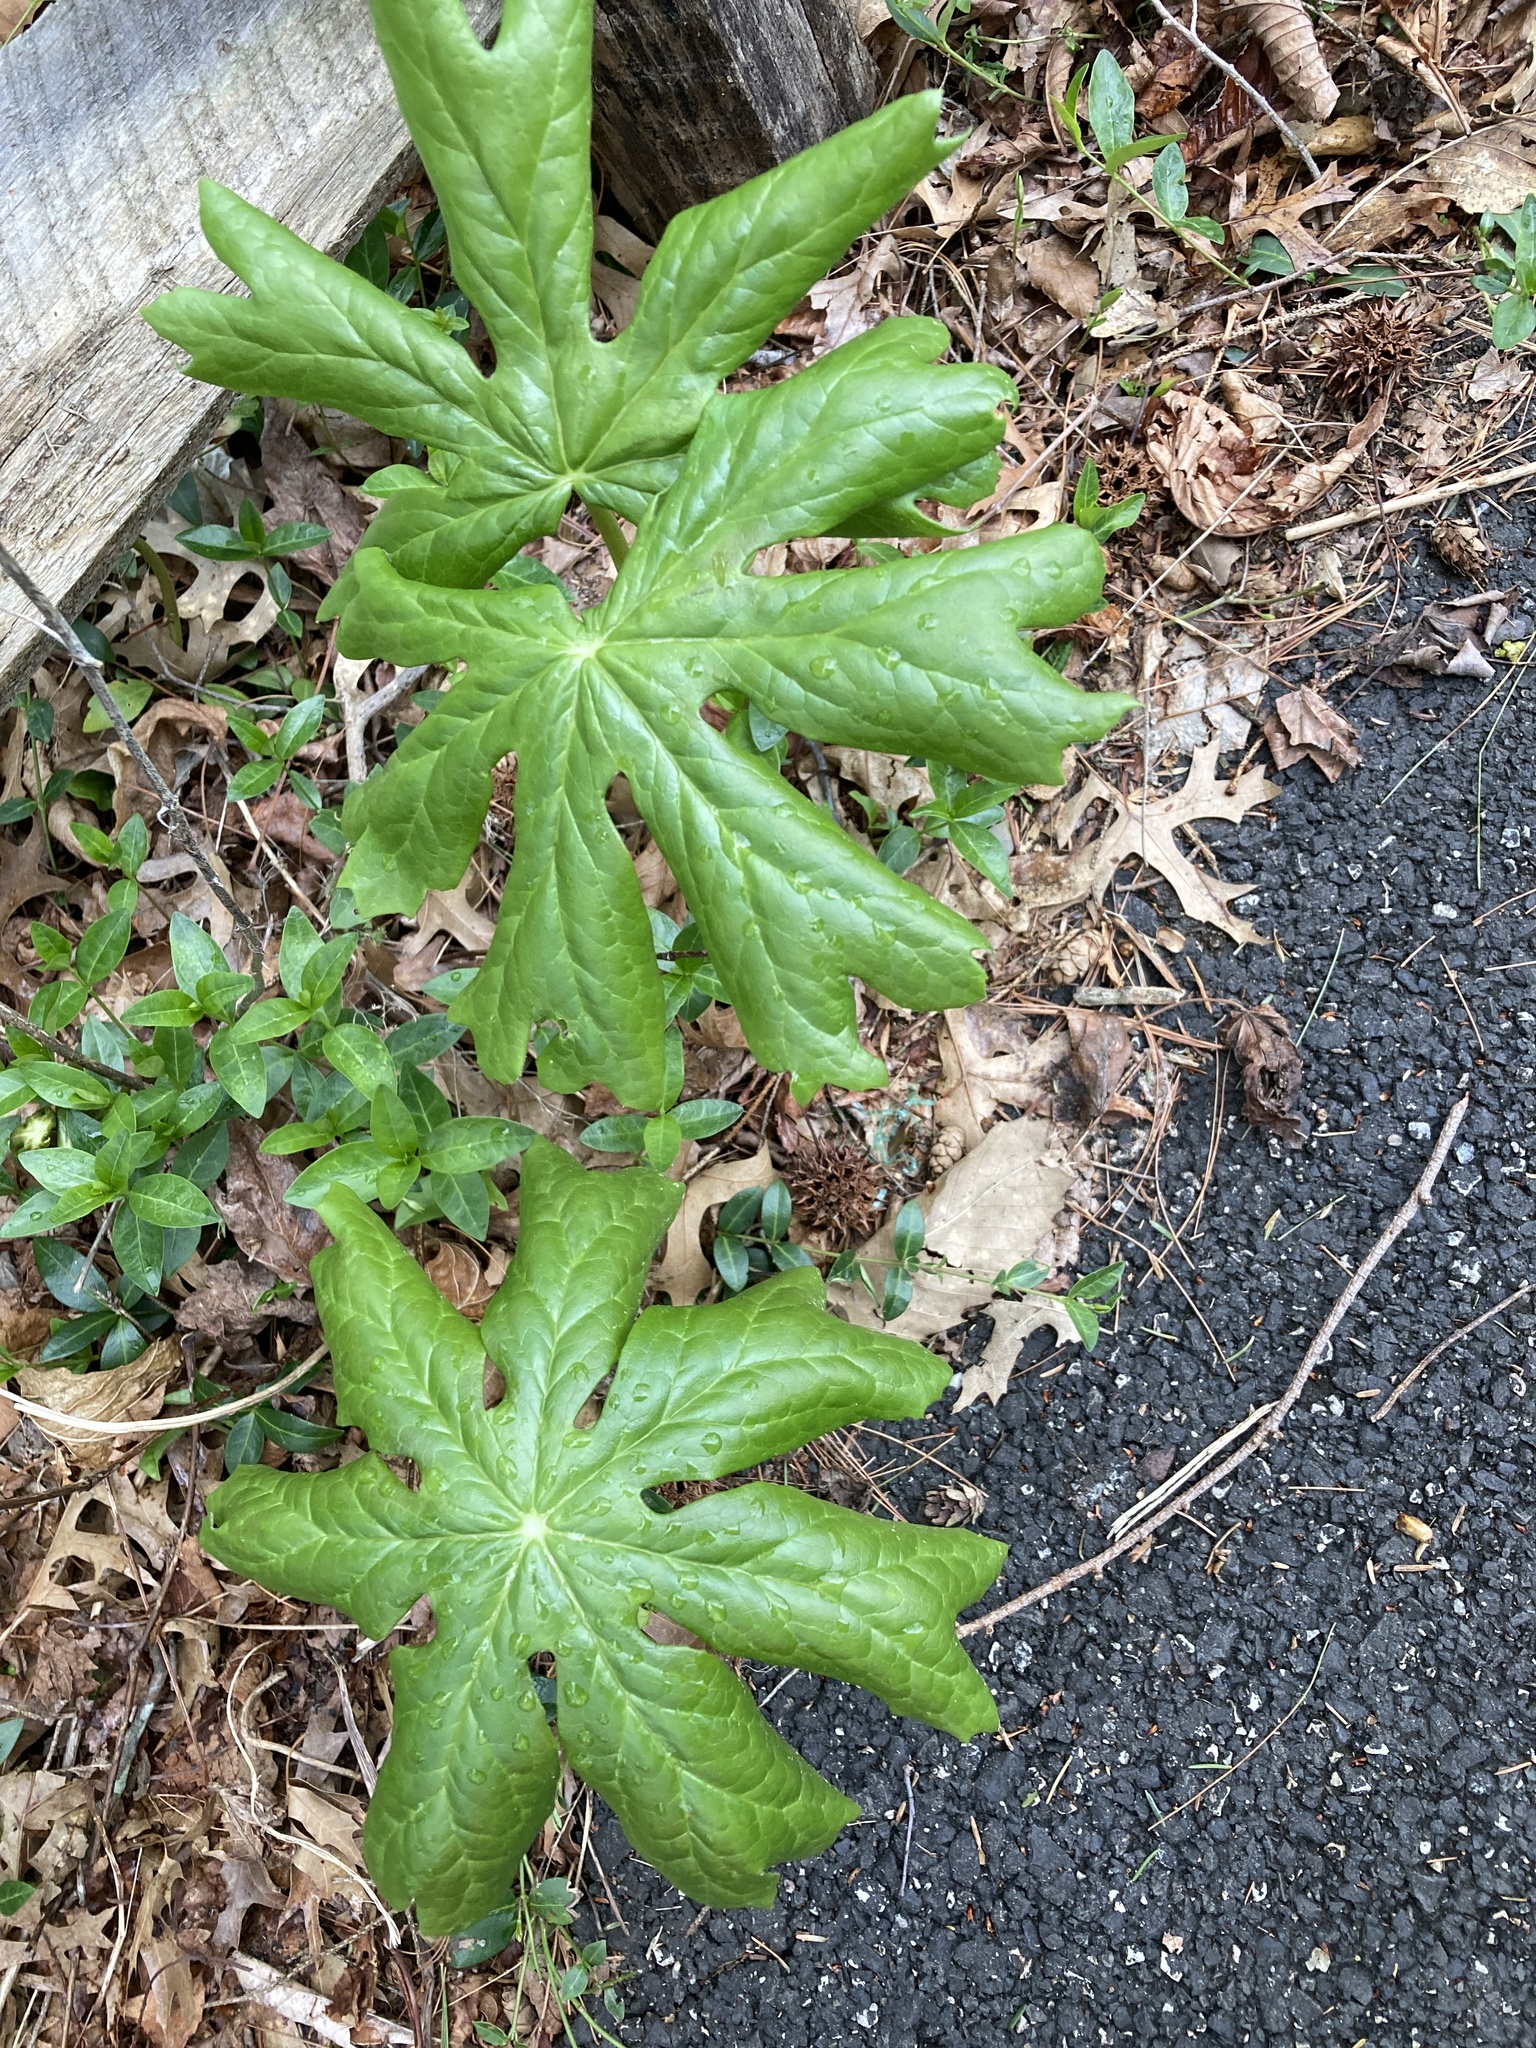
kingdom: Plantae
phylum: Tracheophyta
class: Magnoliopsida
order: Ranunculales
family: Berberidaceae
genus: Podophyllum
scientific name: Podophyllum peltatum
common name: Wild mandrake
